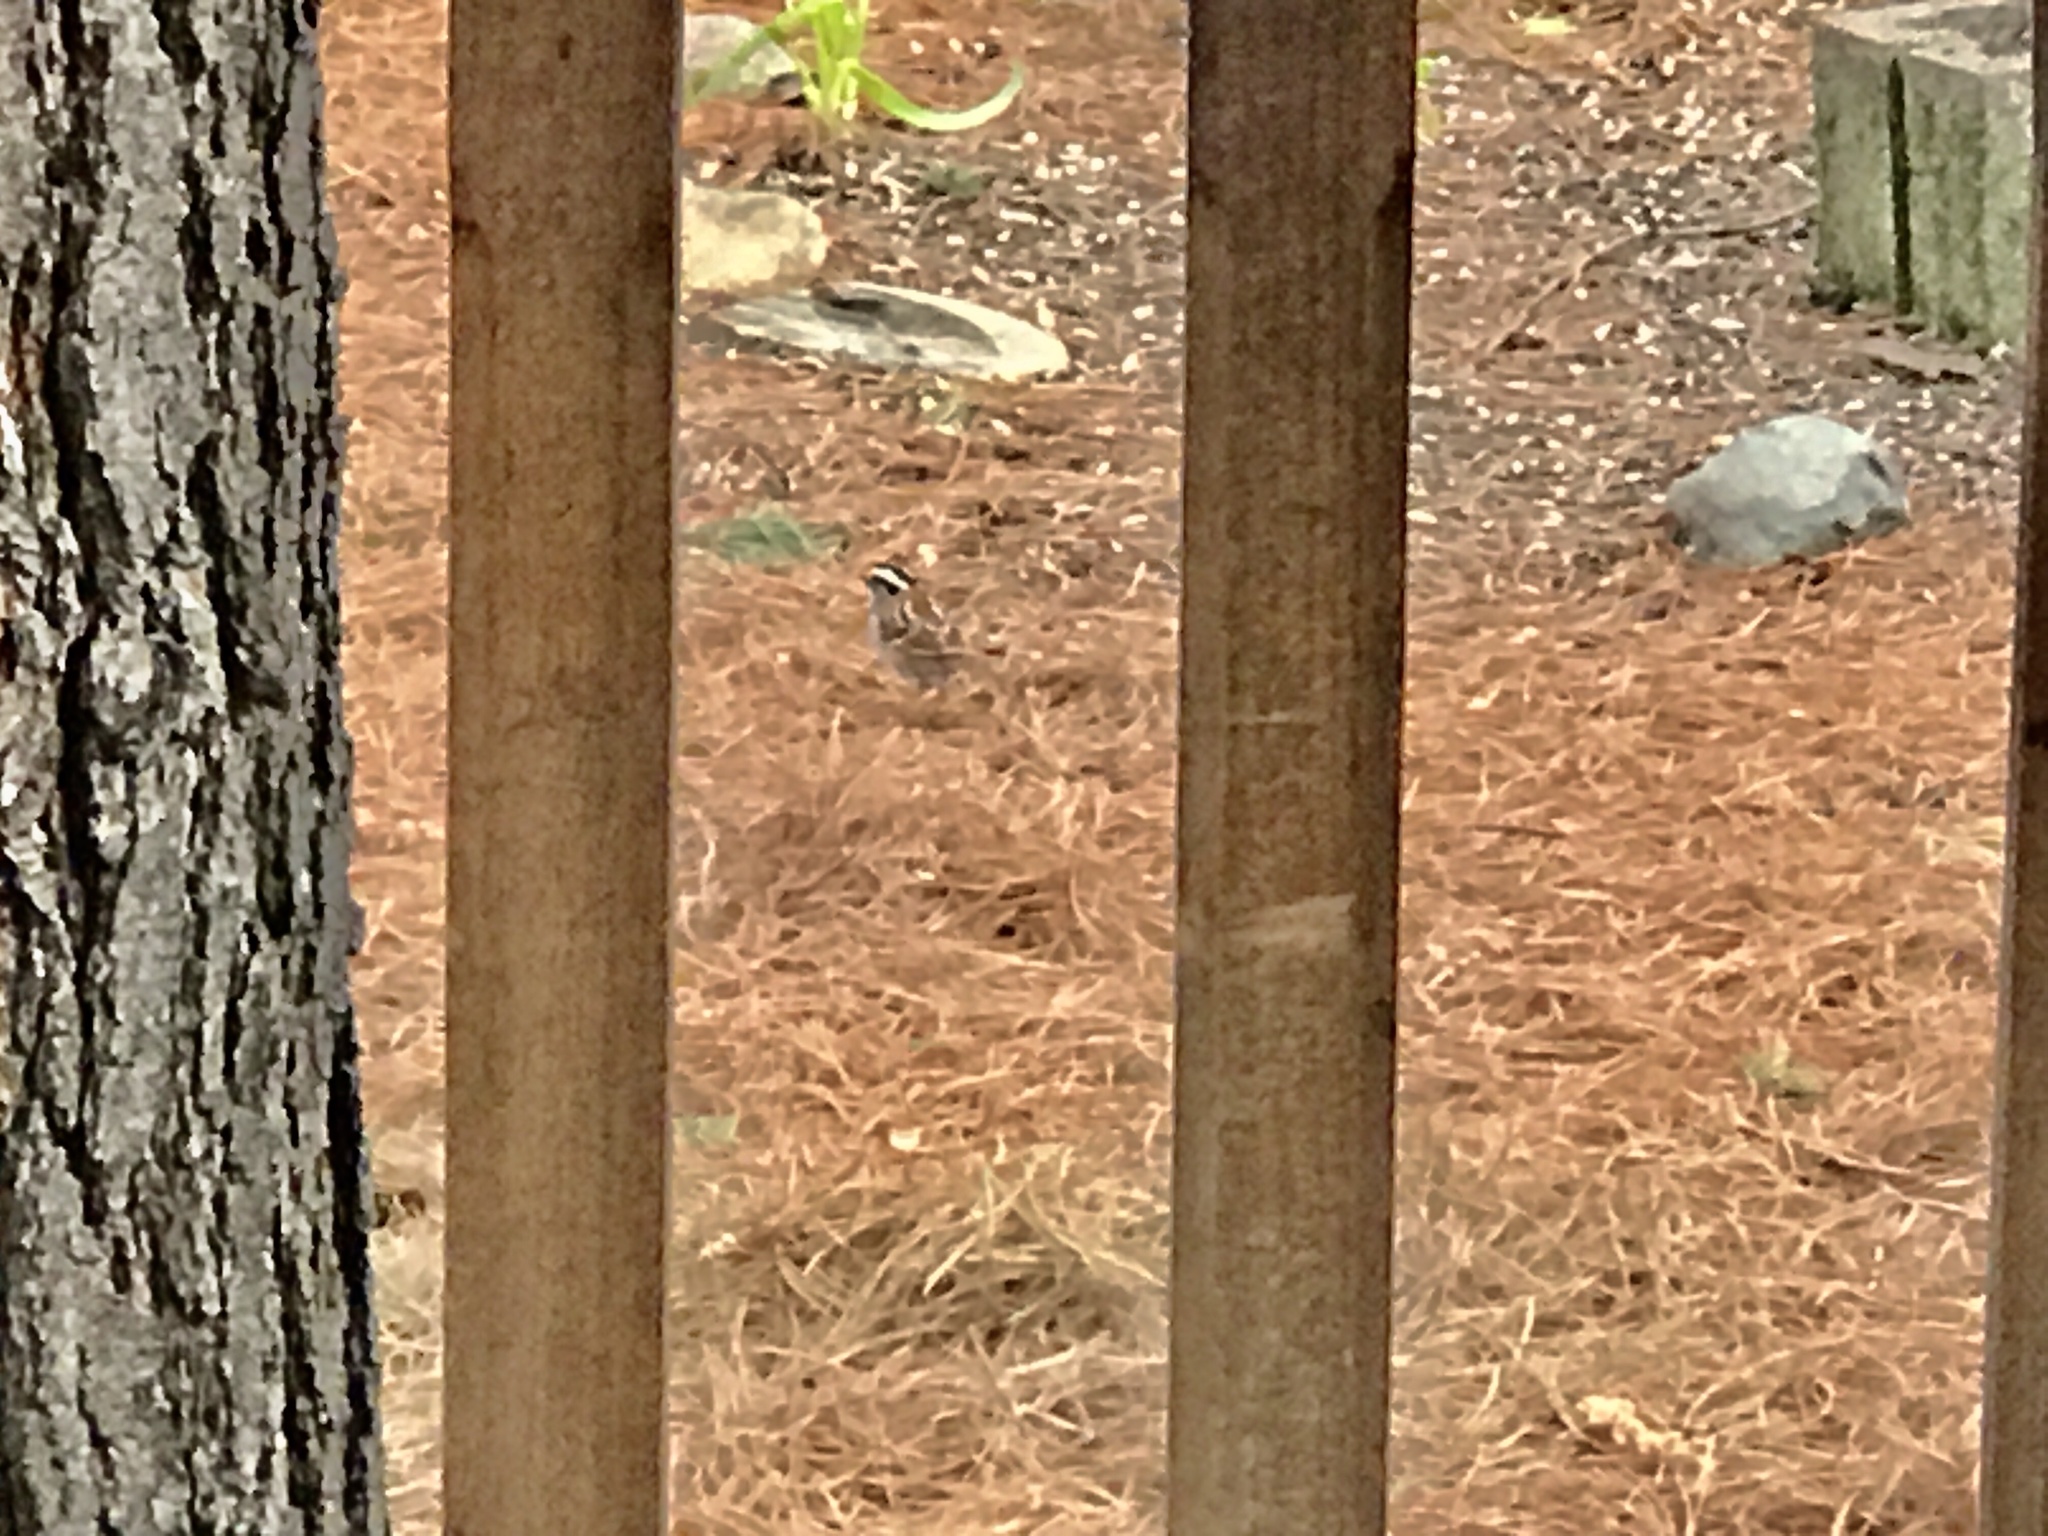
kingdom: Animalia
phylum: Chordata
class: Aves
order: Passeriformes
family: Passerellidae
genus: Zonotrichia
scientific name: Zonotrichia albicollis
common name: White-throated sparrow
